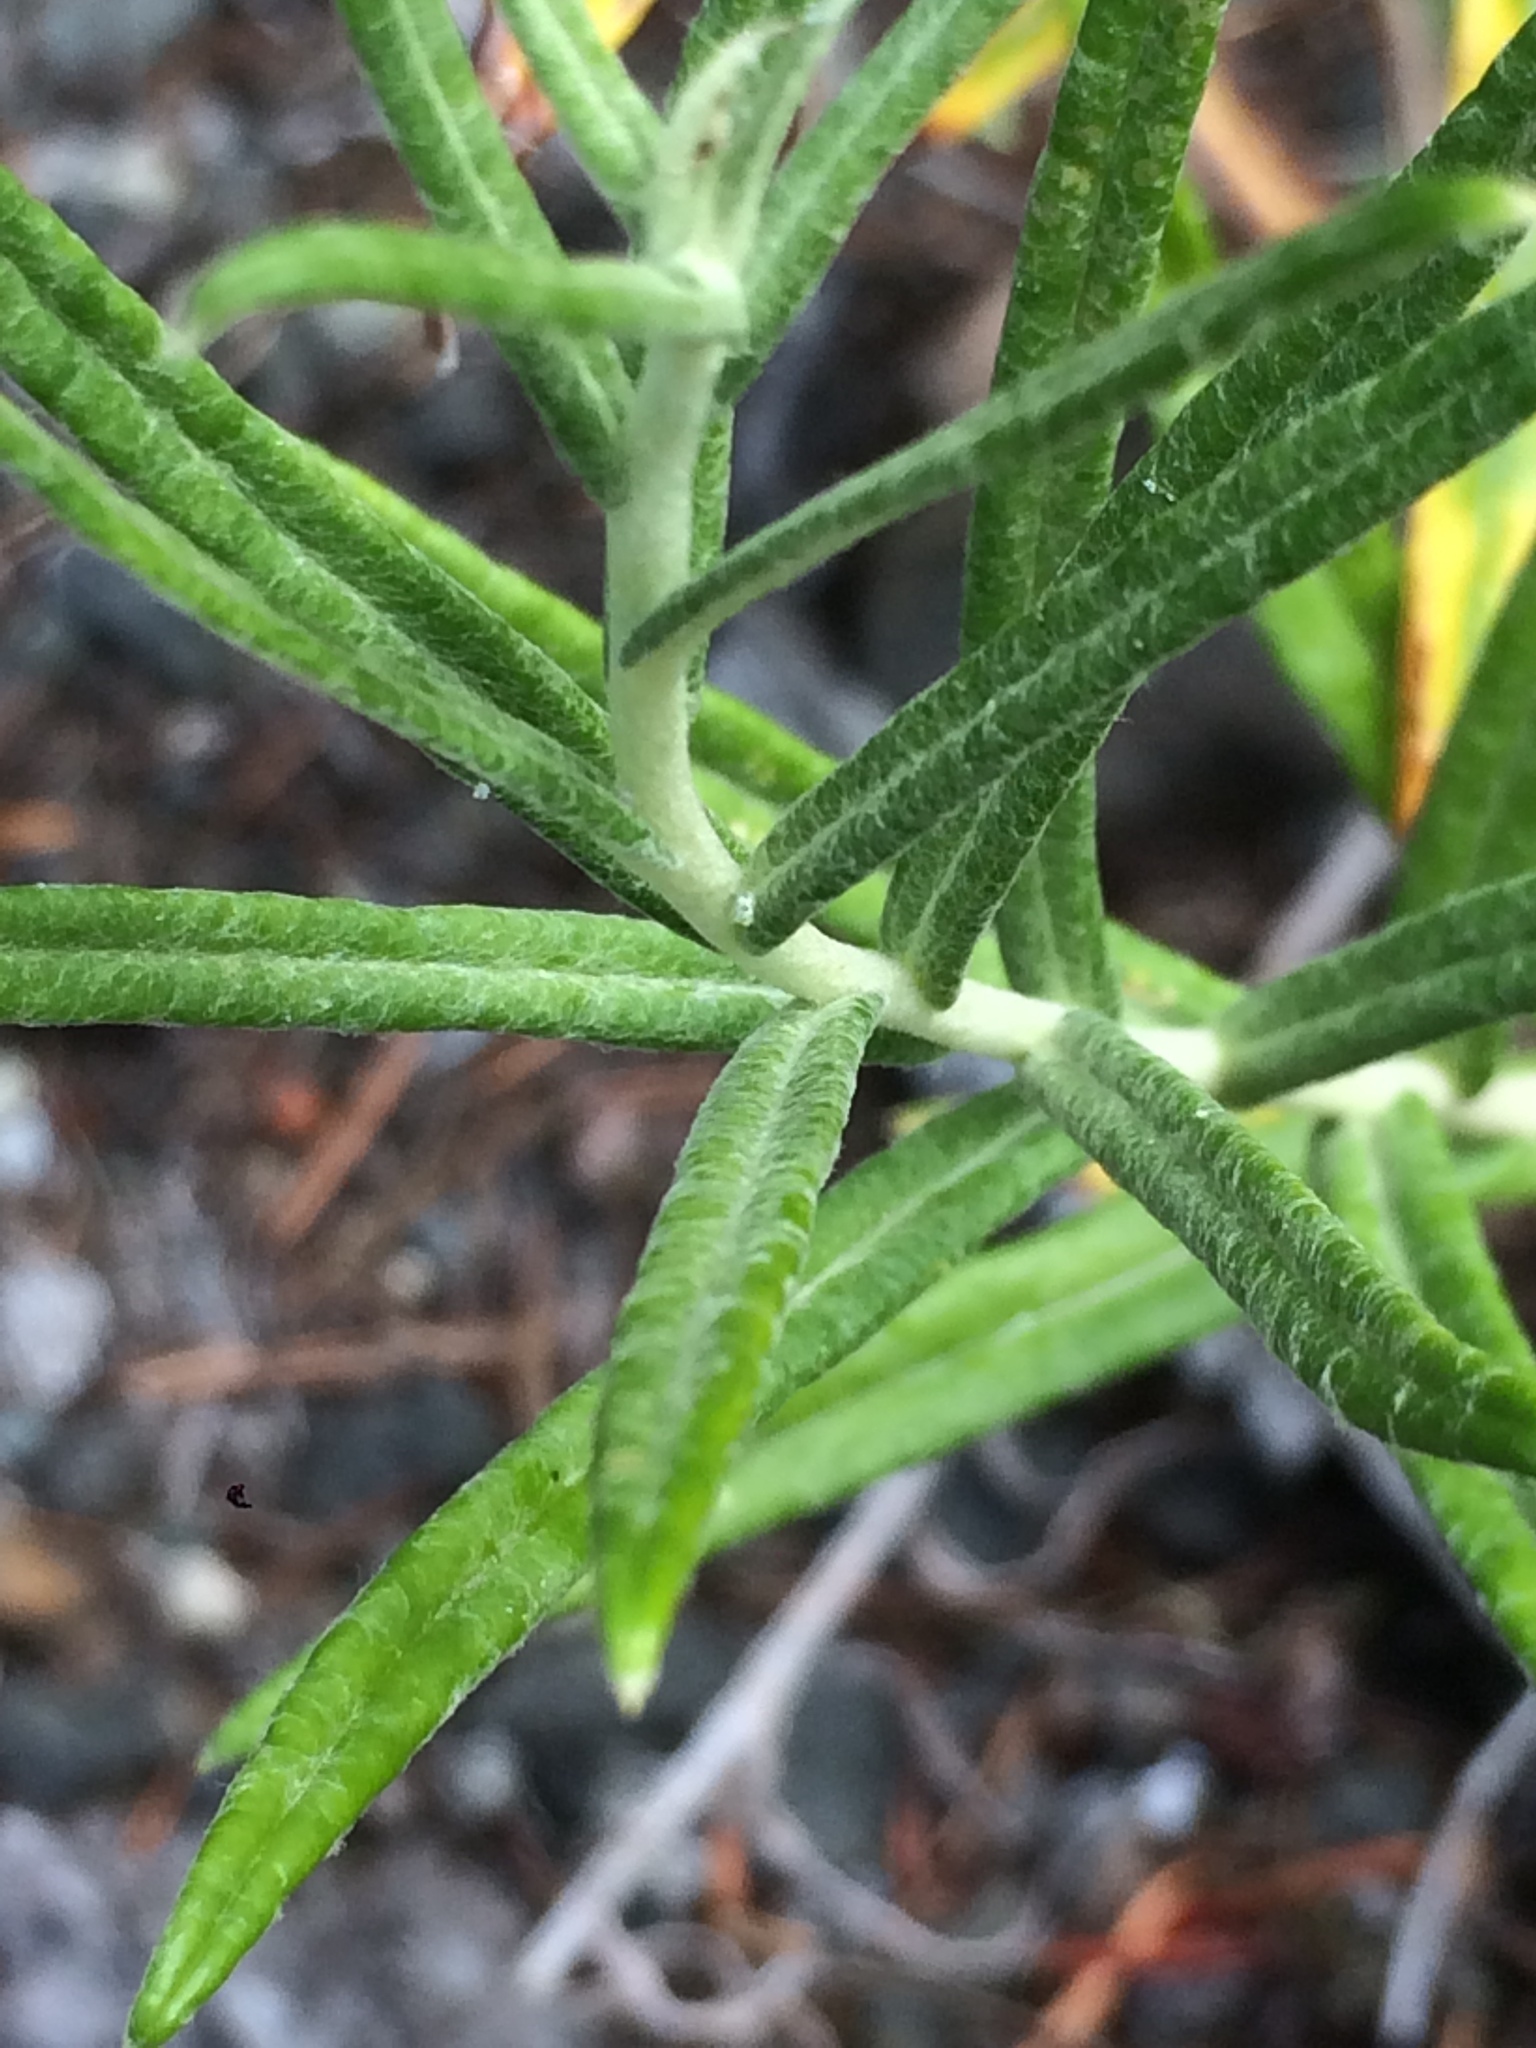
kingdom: Plantae
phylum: Tracheophyta
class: Magnoliopsida
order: Asterales
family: Asteraceae
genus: Anaphalis
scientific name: Anaphalis margaritacea
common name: Pearly everlasting
